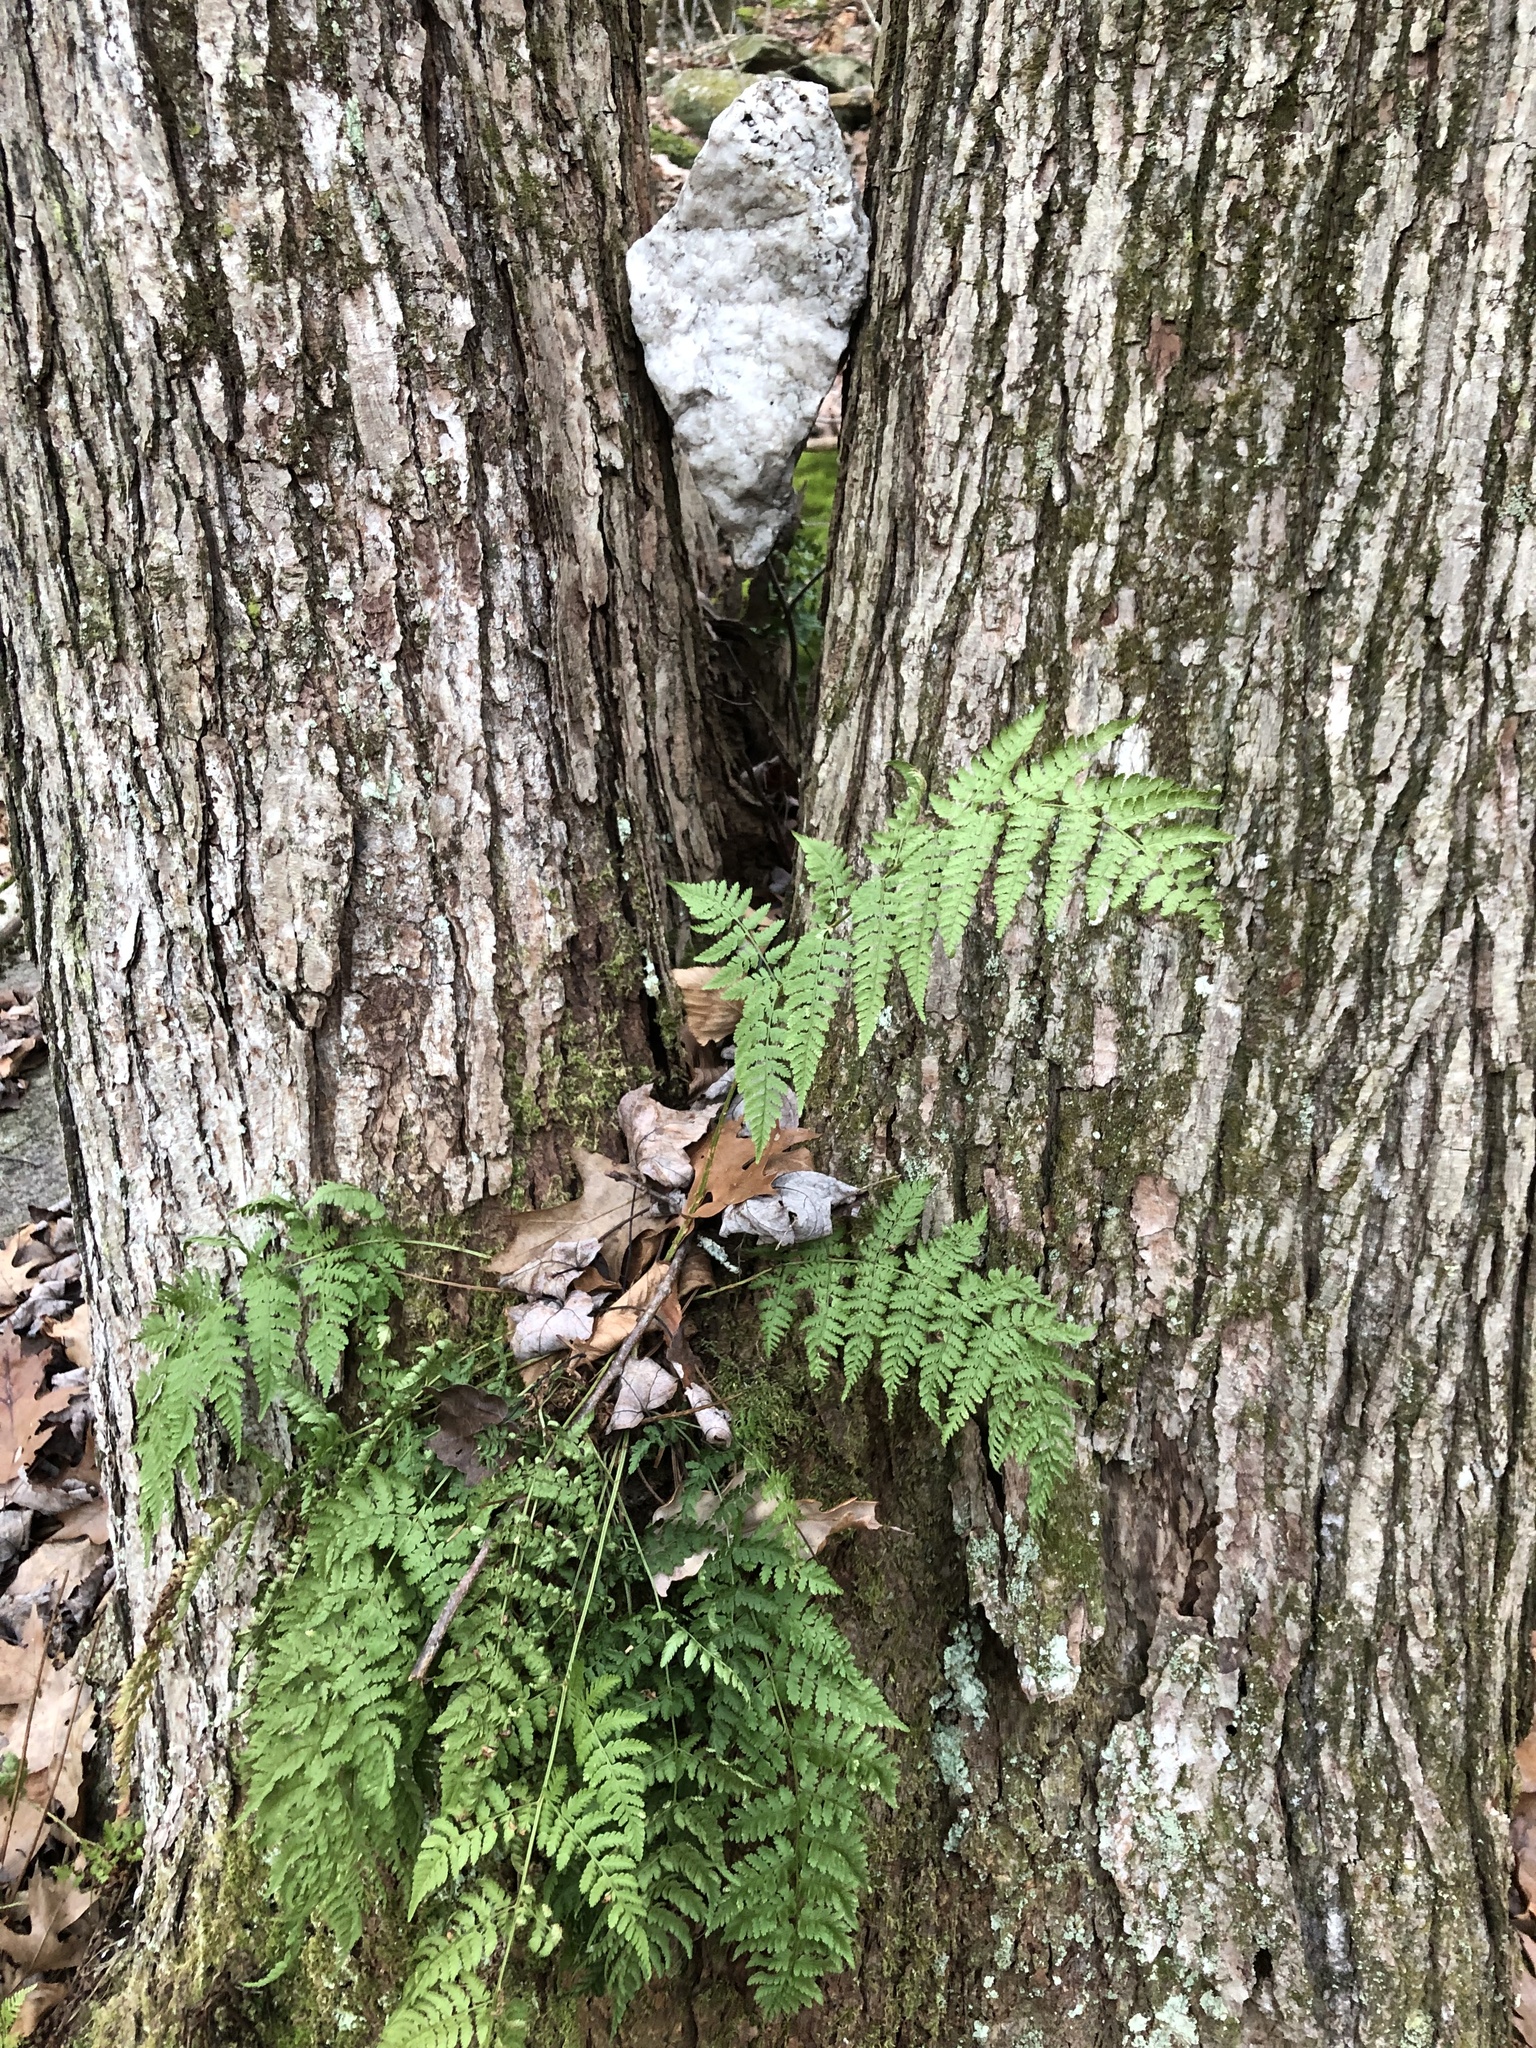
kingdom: Plantae
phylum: Tracheophyta
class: Polypodiopsida
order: Polypodiales
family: Dryopteridaceae
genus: Dryopteris
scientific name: Dryopteris intermedia
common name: Evergreen wood fern
